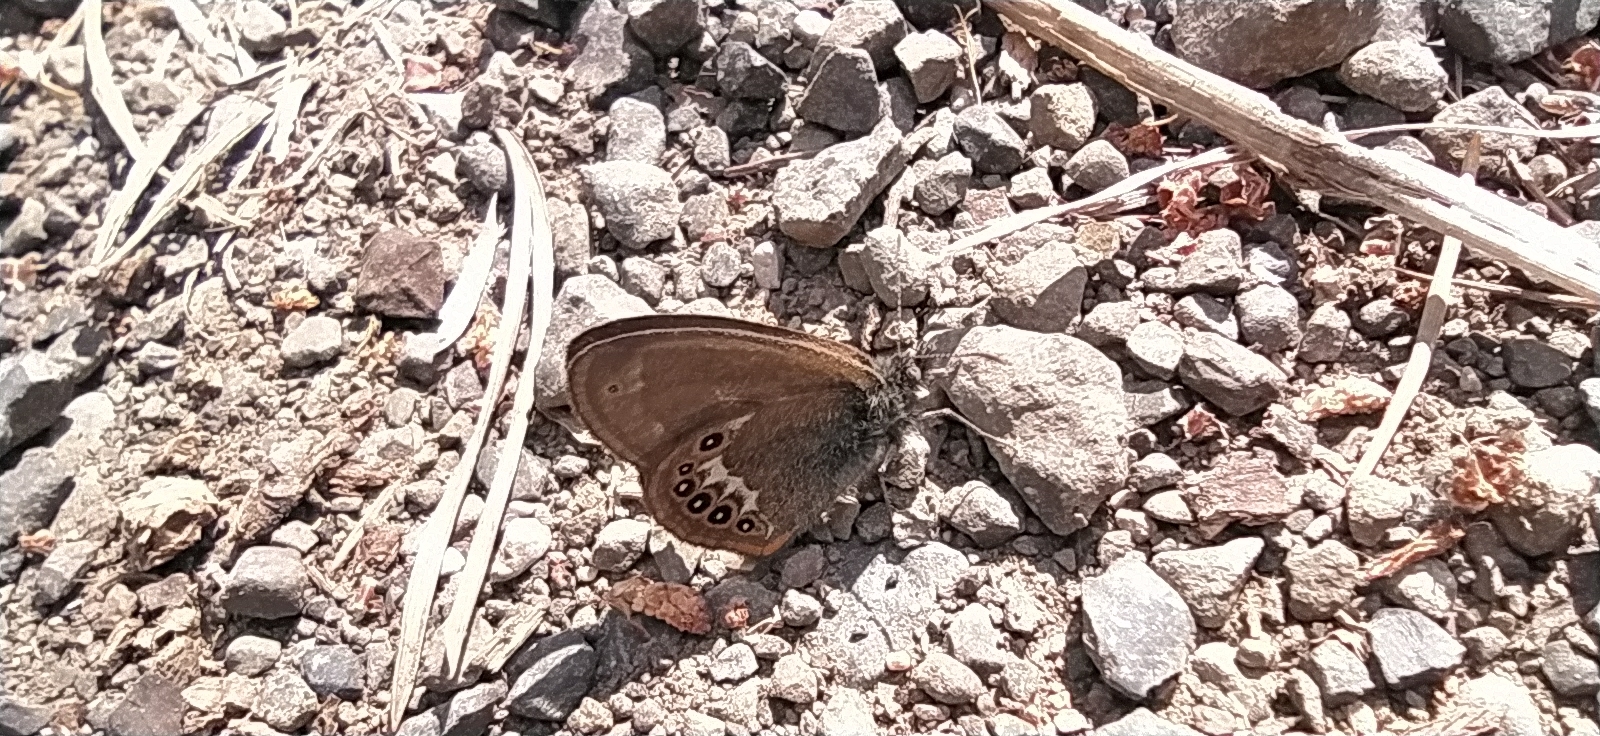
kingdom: Animalia
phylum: Arthropoda
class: Insecta
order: Lepidoptera
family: Nymphalidae
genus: Coenonympha
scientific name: Coenonympha hero
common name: Scarce heath
